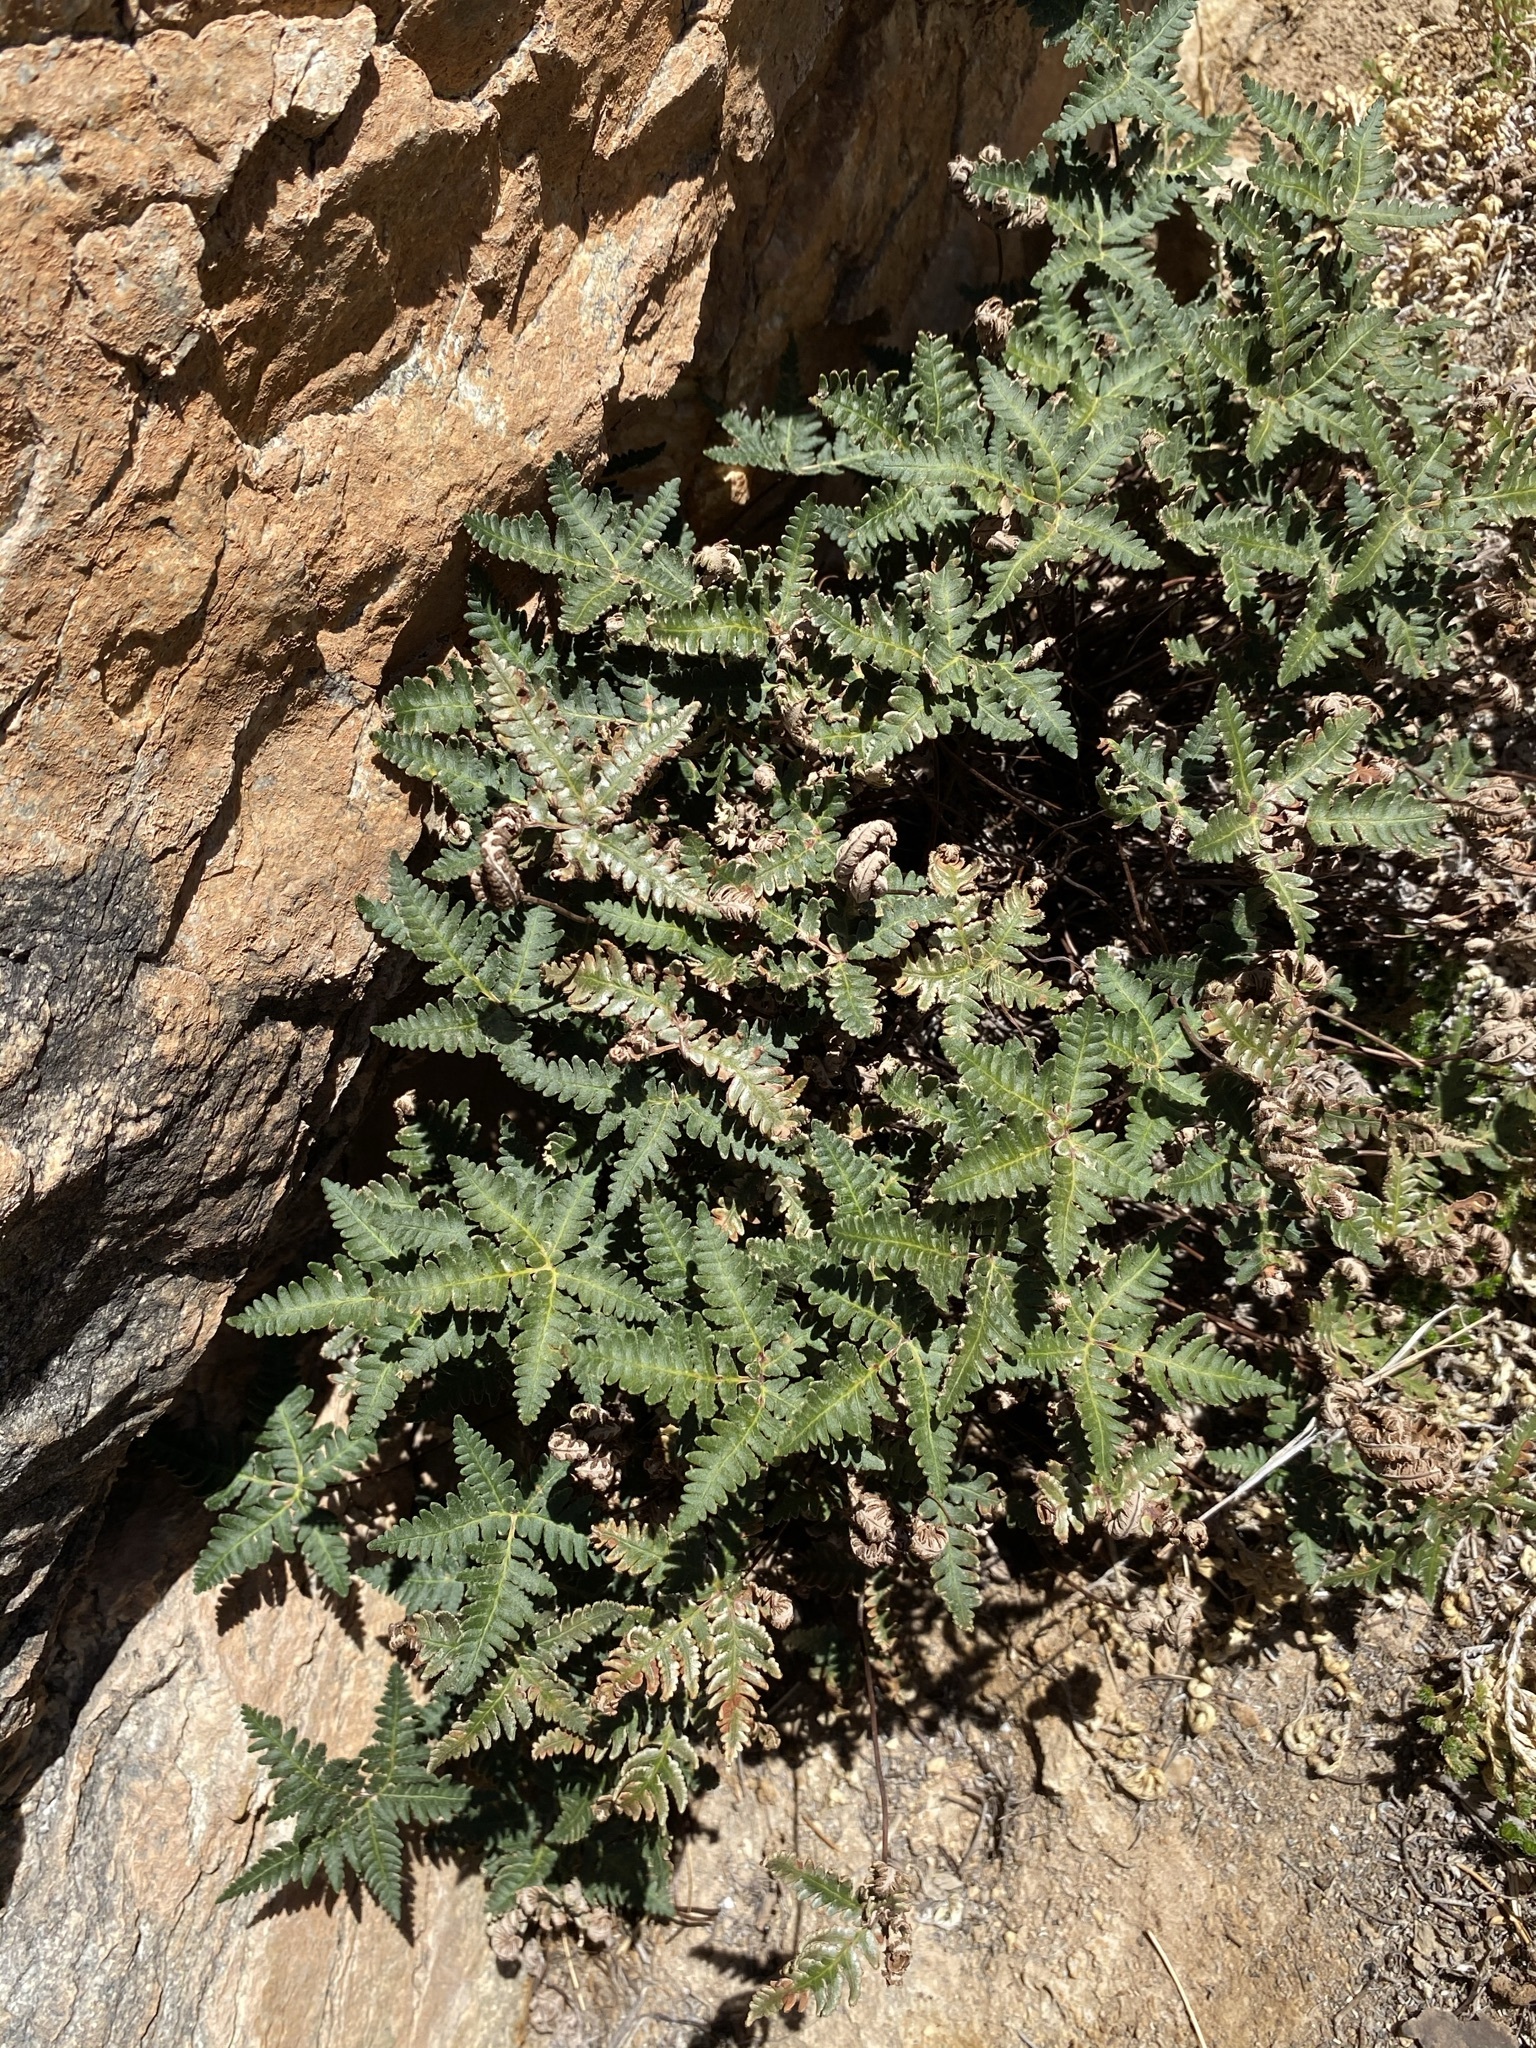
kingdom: Plantae
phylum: Tracheophyta
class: Polypodiopsida
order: Polypodiales
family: Pteridaceae
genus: Notholaena
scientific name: Notholaena standleyi
